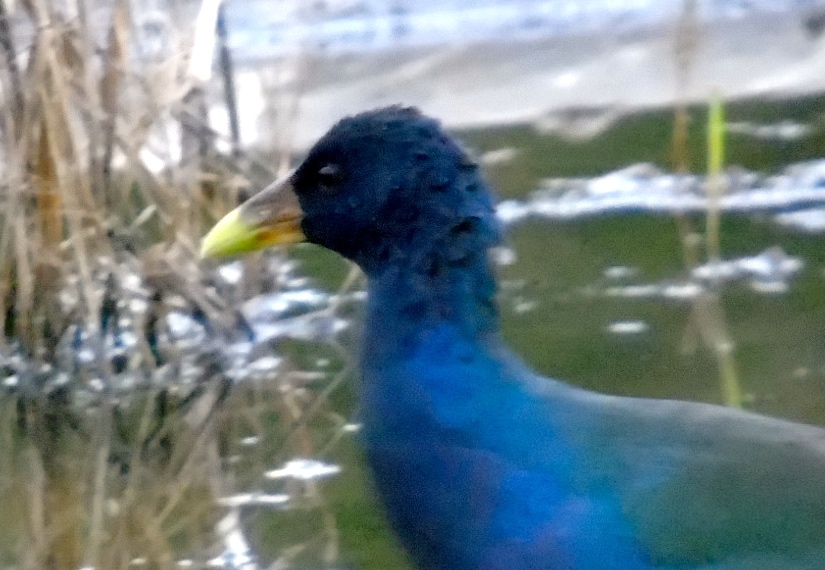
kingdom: Animalia
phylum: Chordata
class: Aves
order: Gruiformes
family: Rallidae
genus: Porphyrio
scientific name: Porphyrio martinica
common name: Purple gallinule
